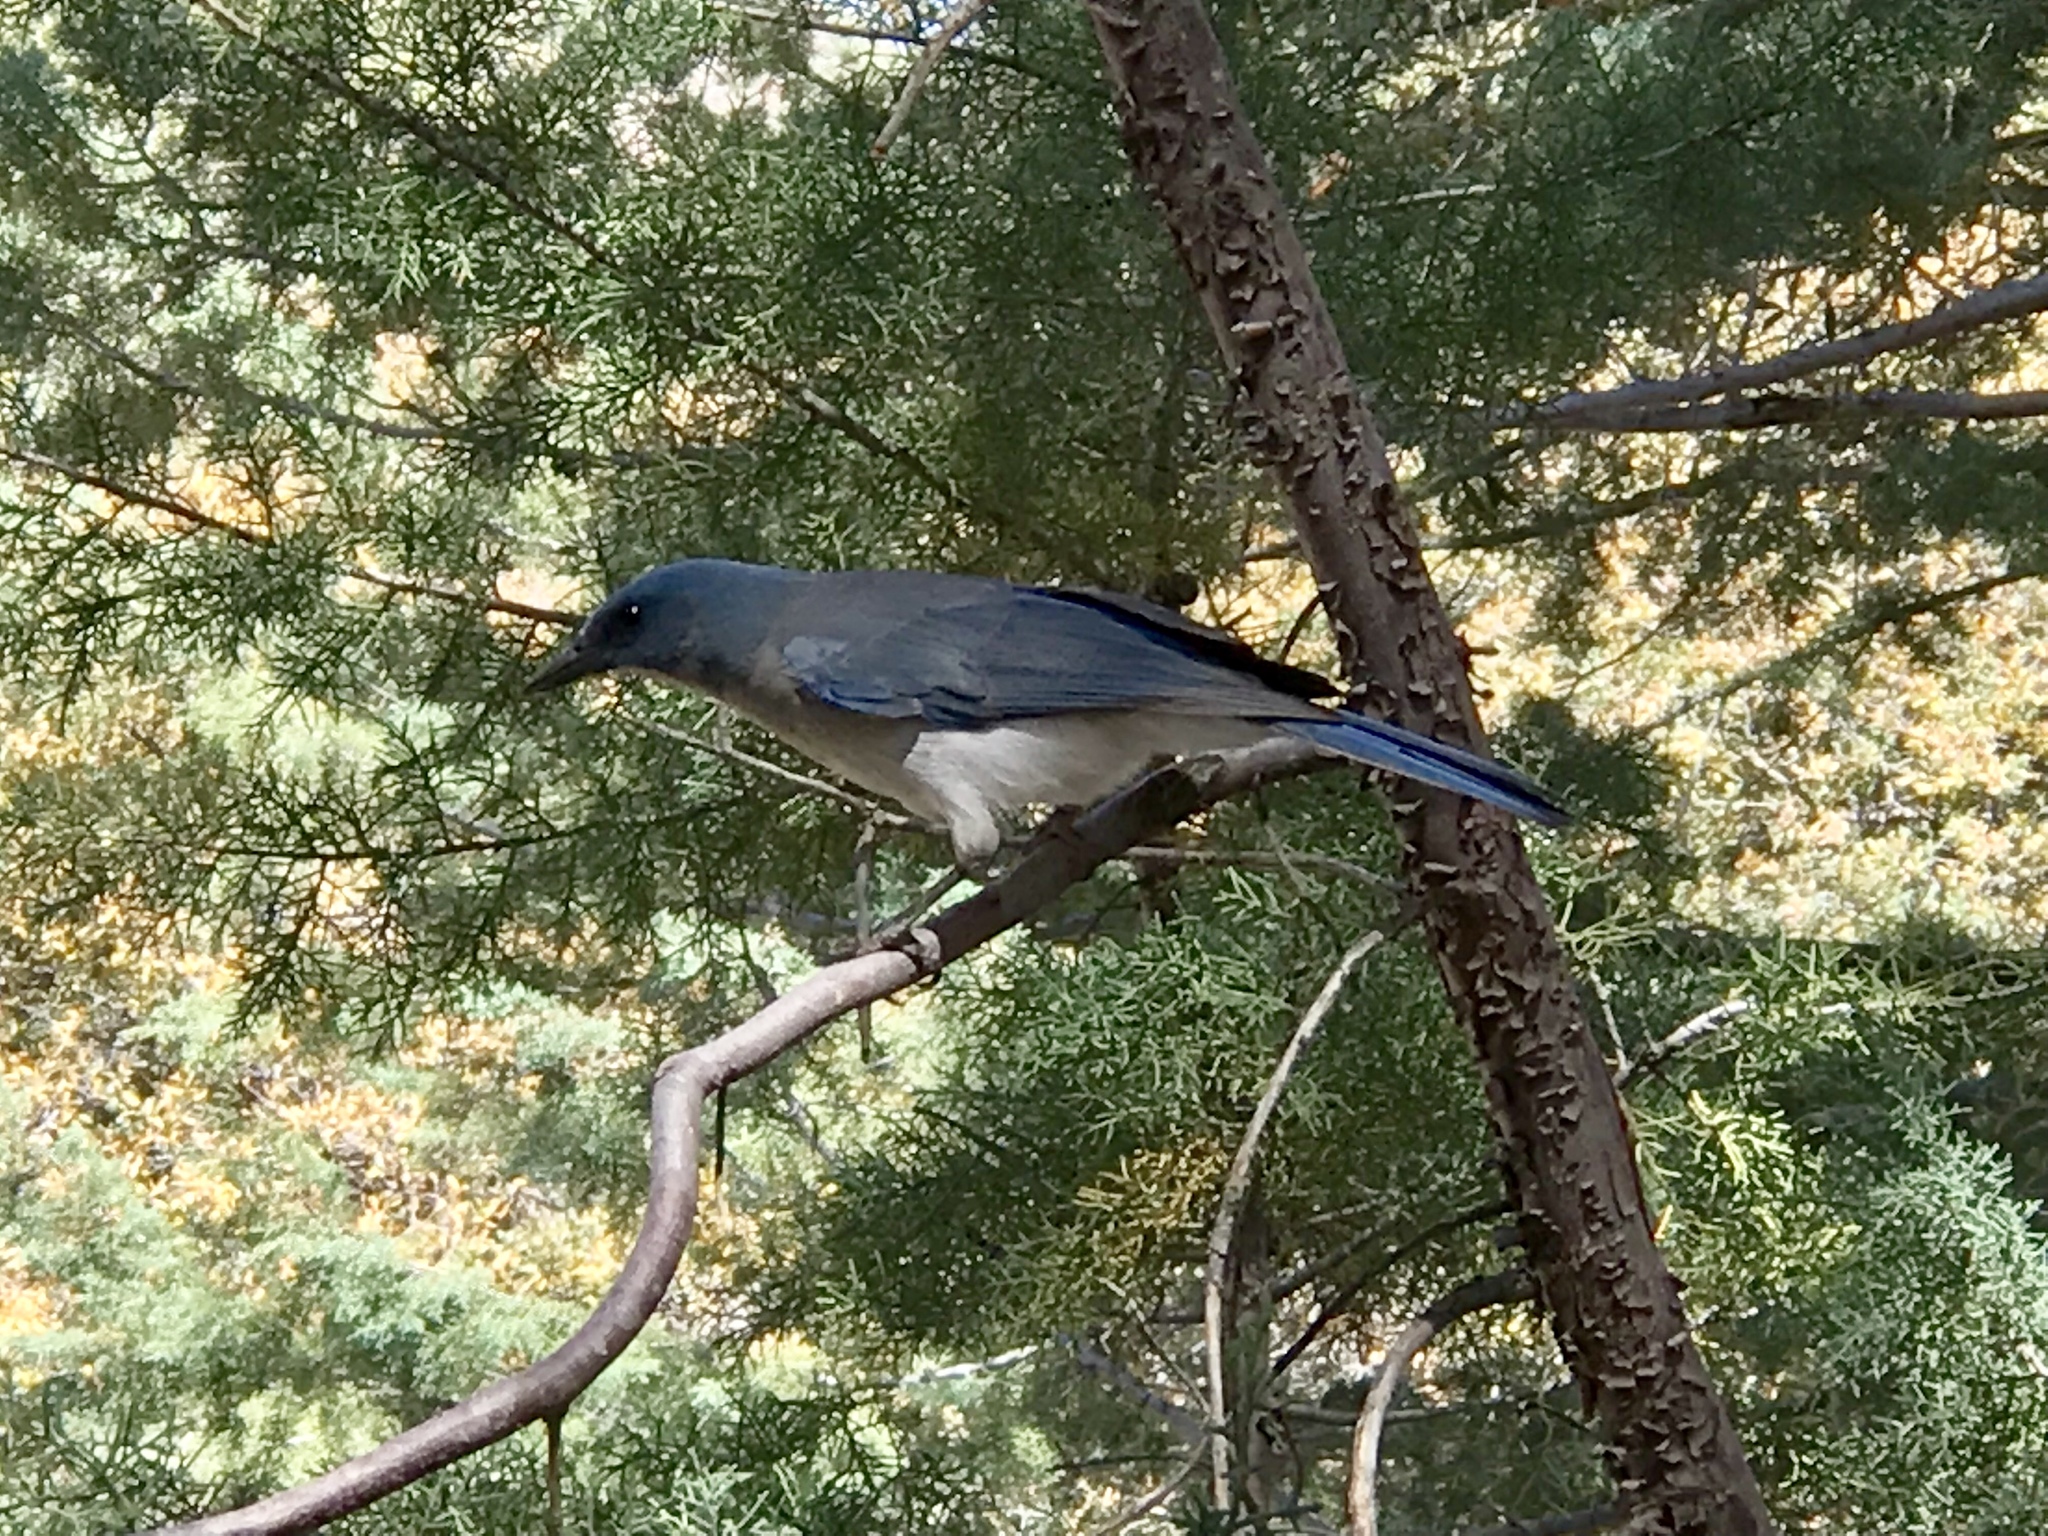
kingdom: Animalia
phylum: Chordata
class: Aves
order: Passeriformes
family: Corvidae
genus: Aphelocoma
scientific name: Aphelocoma wollweberi
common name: Mexican jay
